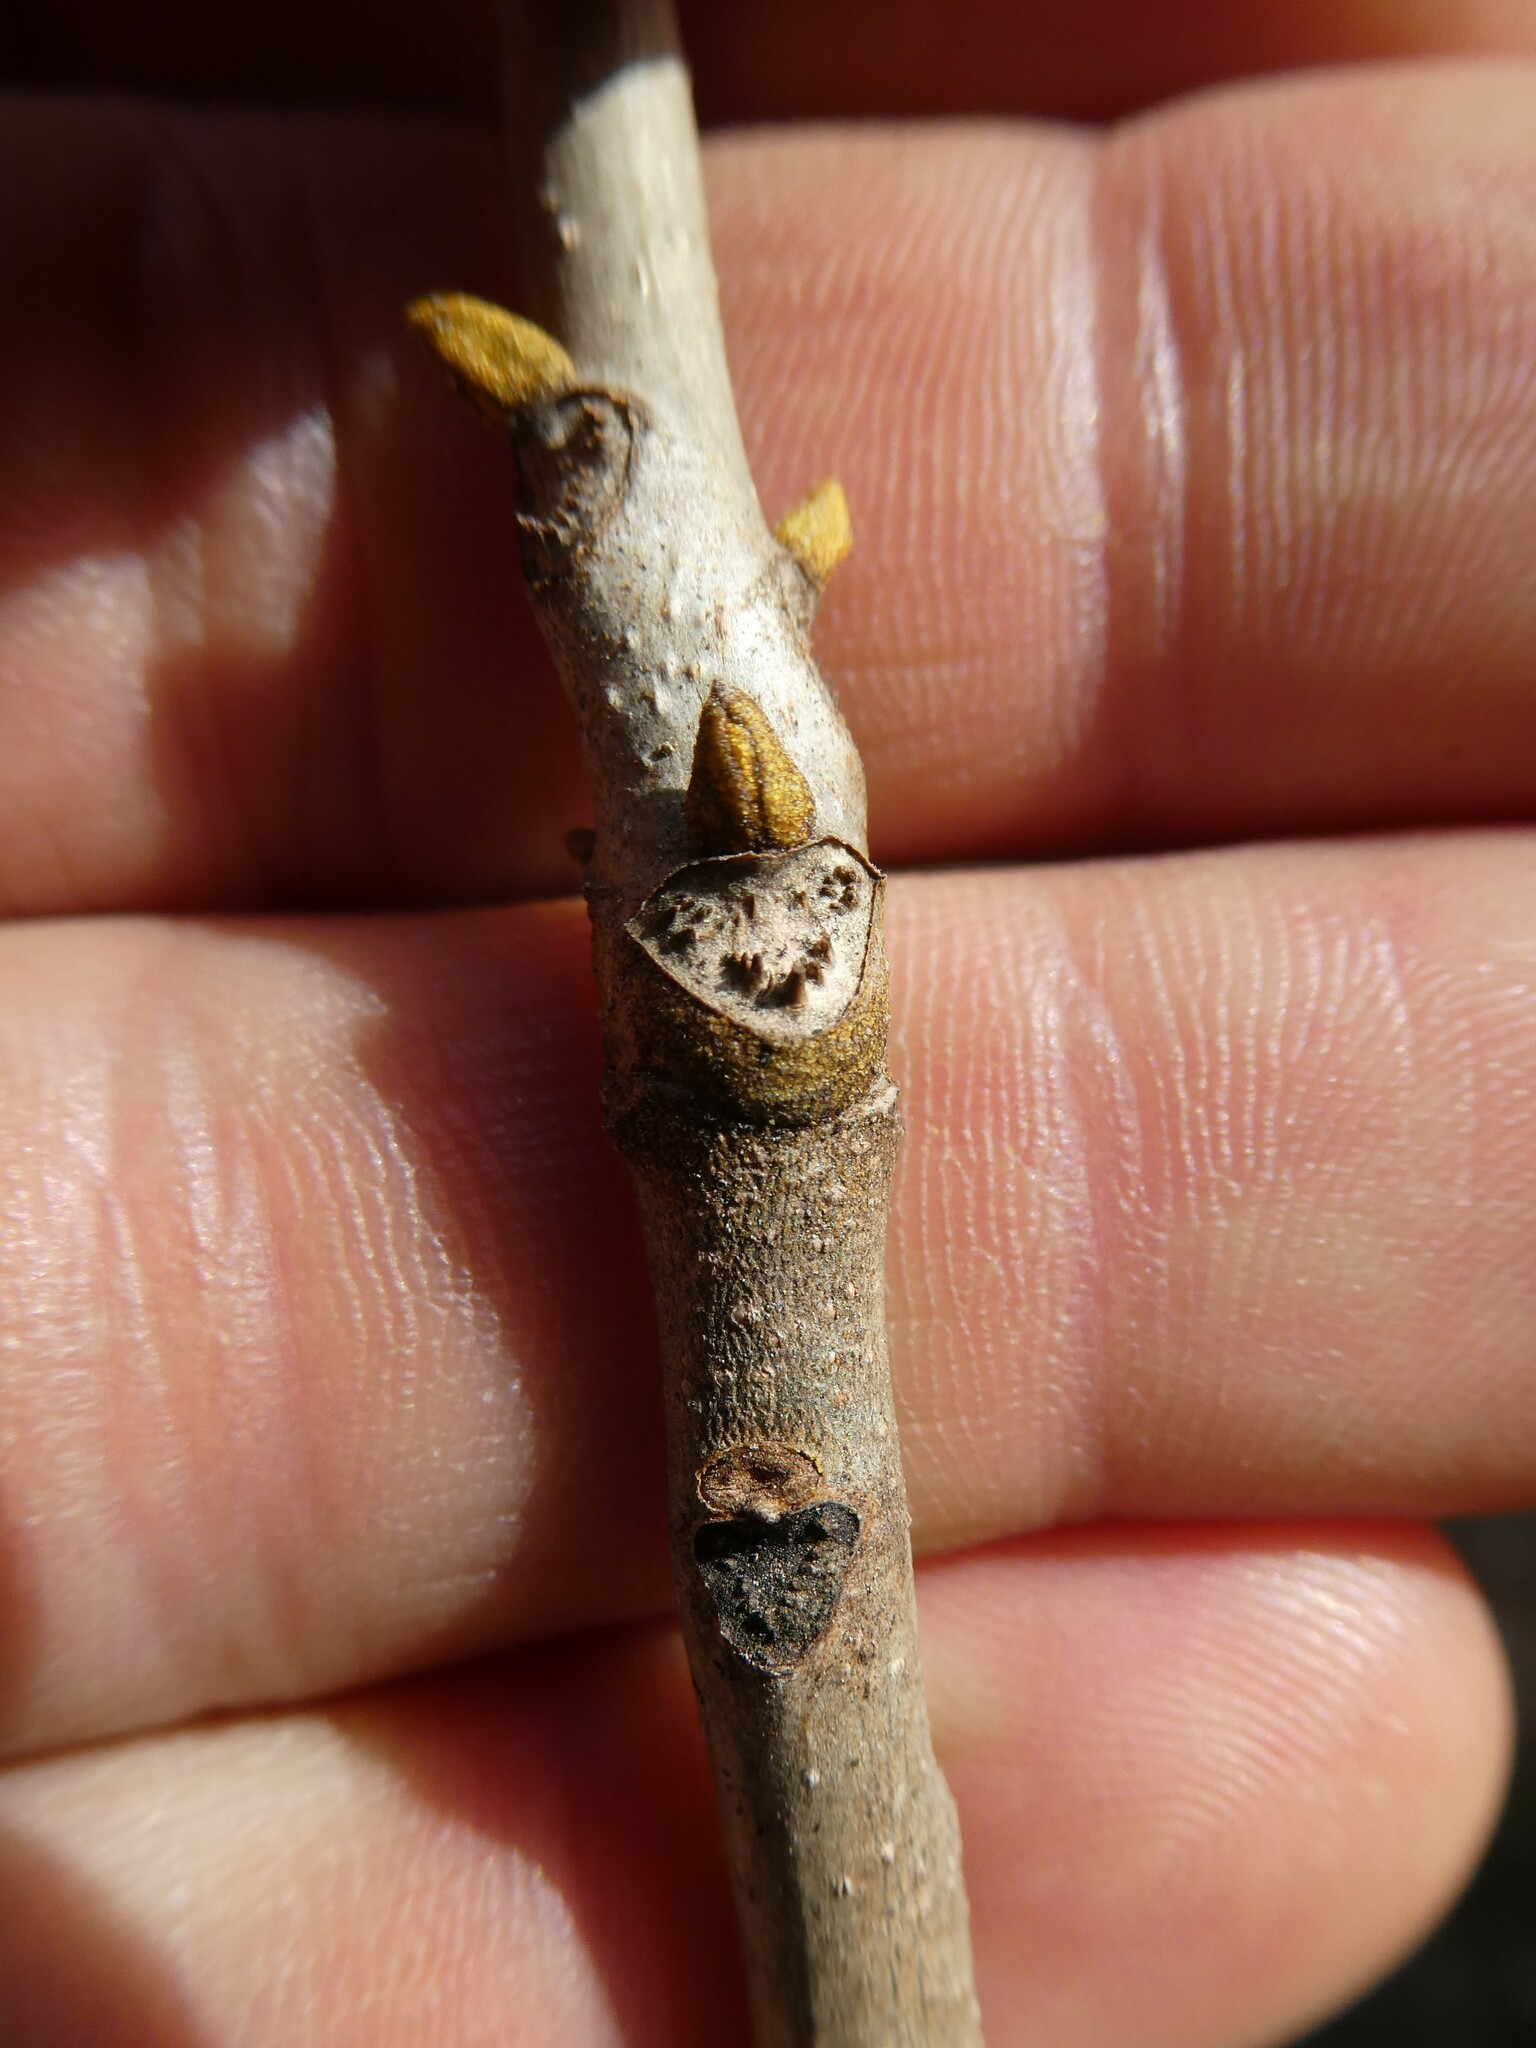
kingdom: Plantae
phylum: Tracheophyta
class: Magnoliopsida
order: Fagales
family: Juglandaceae
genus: Carya
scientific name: Carya cordiformis
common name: Bitternut hickory
